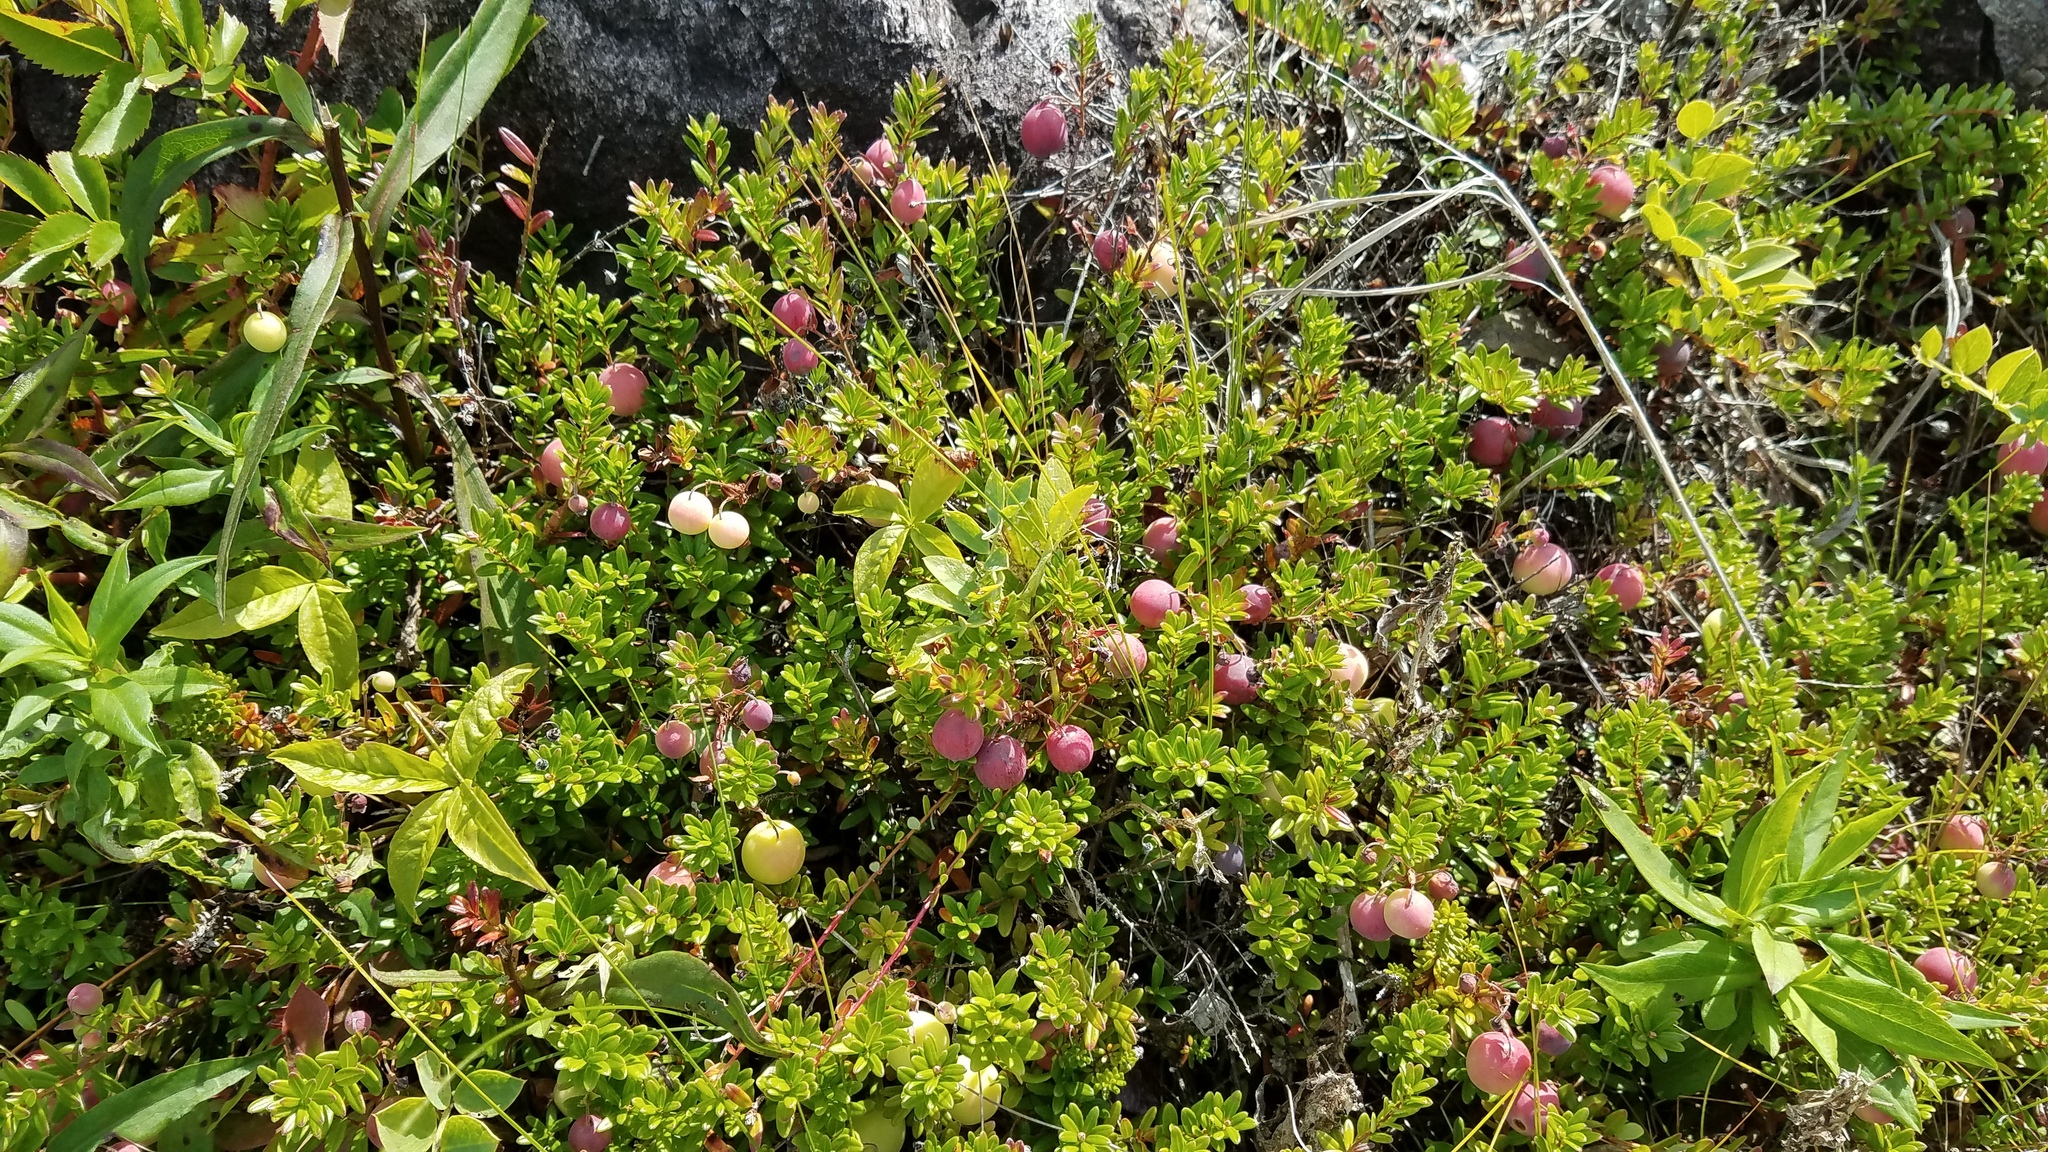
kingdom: Plantae
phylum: Tracheophyta
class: Magnoliopsida
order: Ericales
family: Ericaceae
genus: Vaccinium
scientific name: Vaccinium macrocarpon
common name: American cranberry
